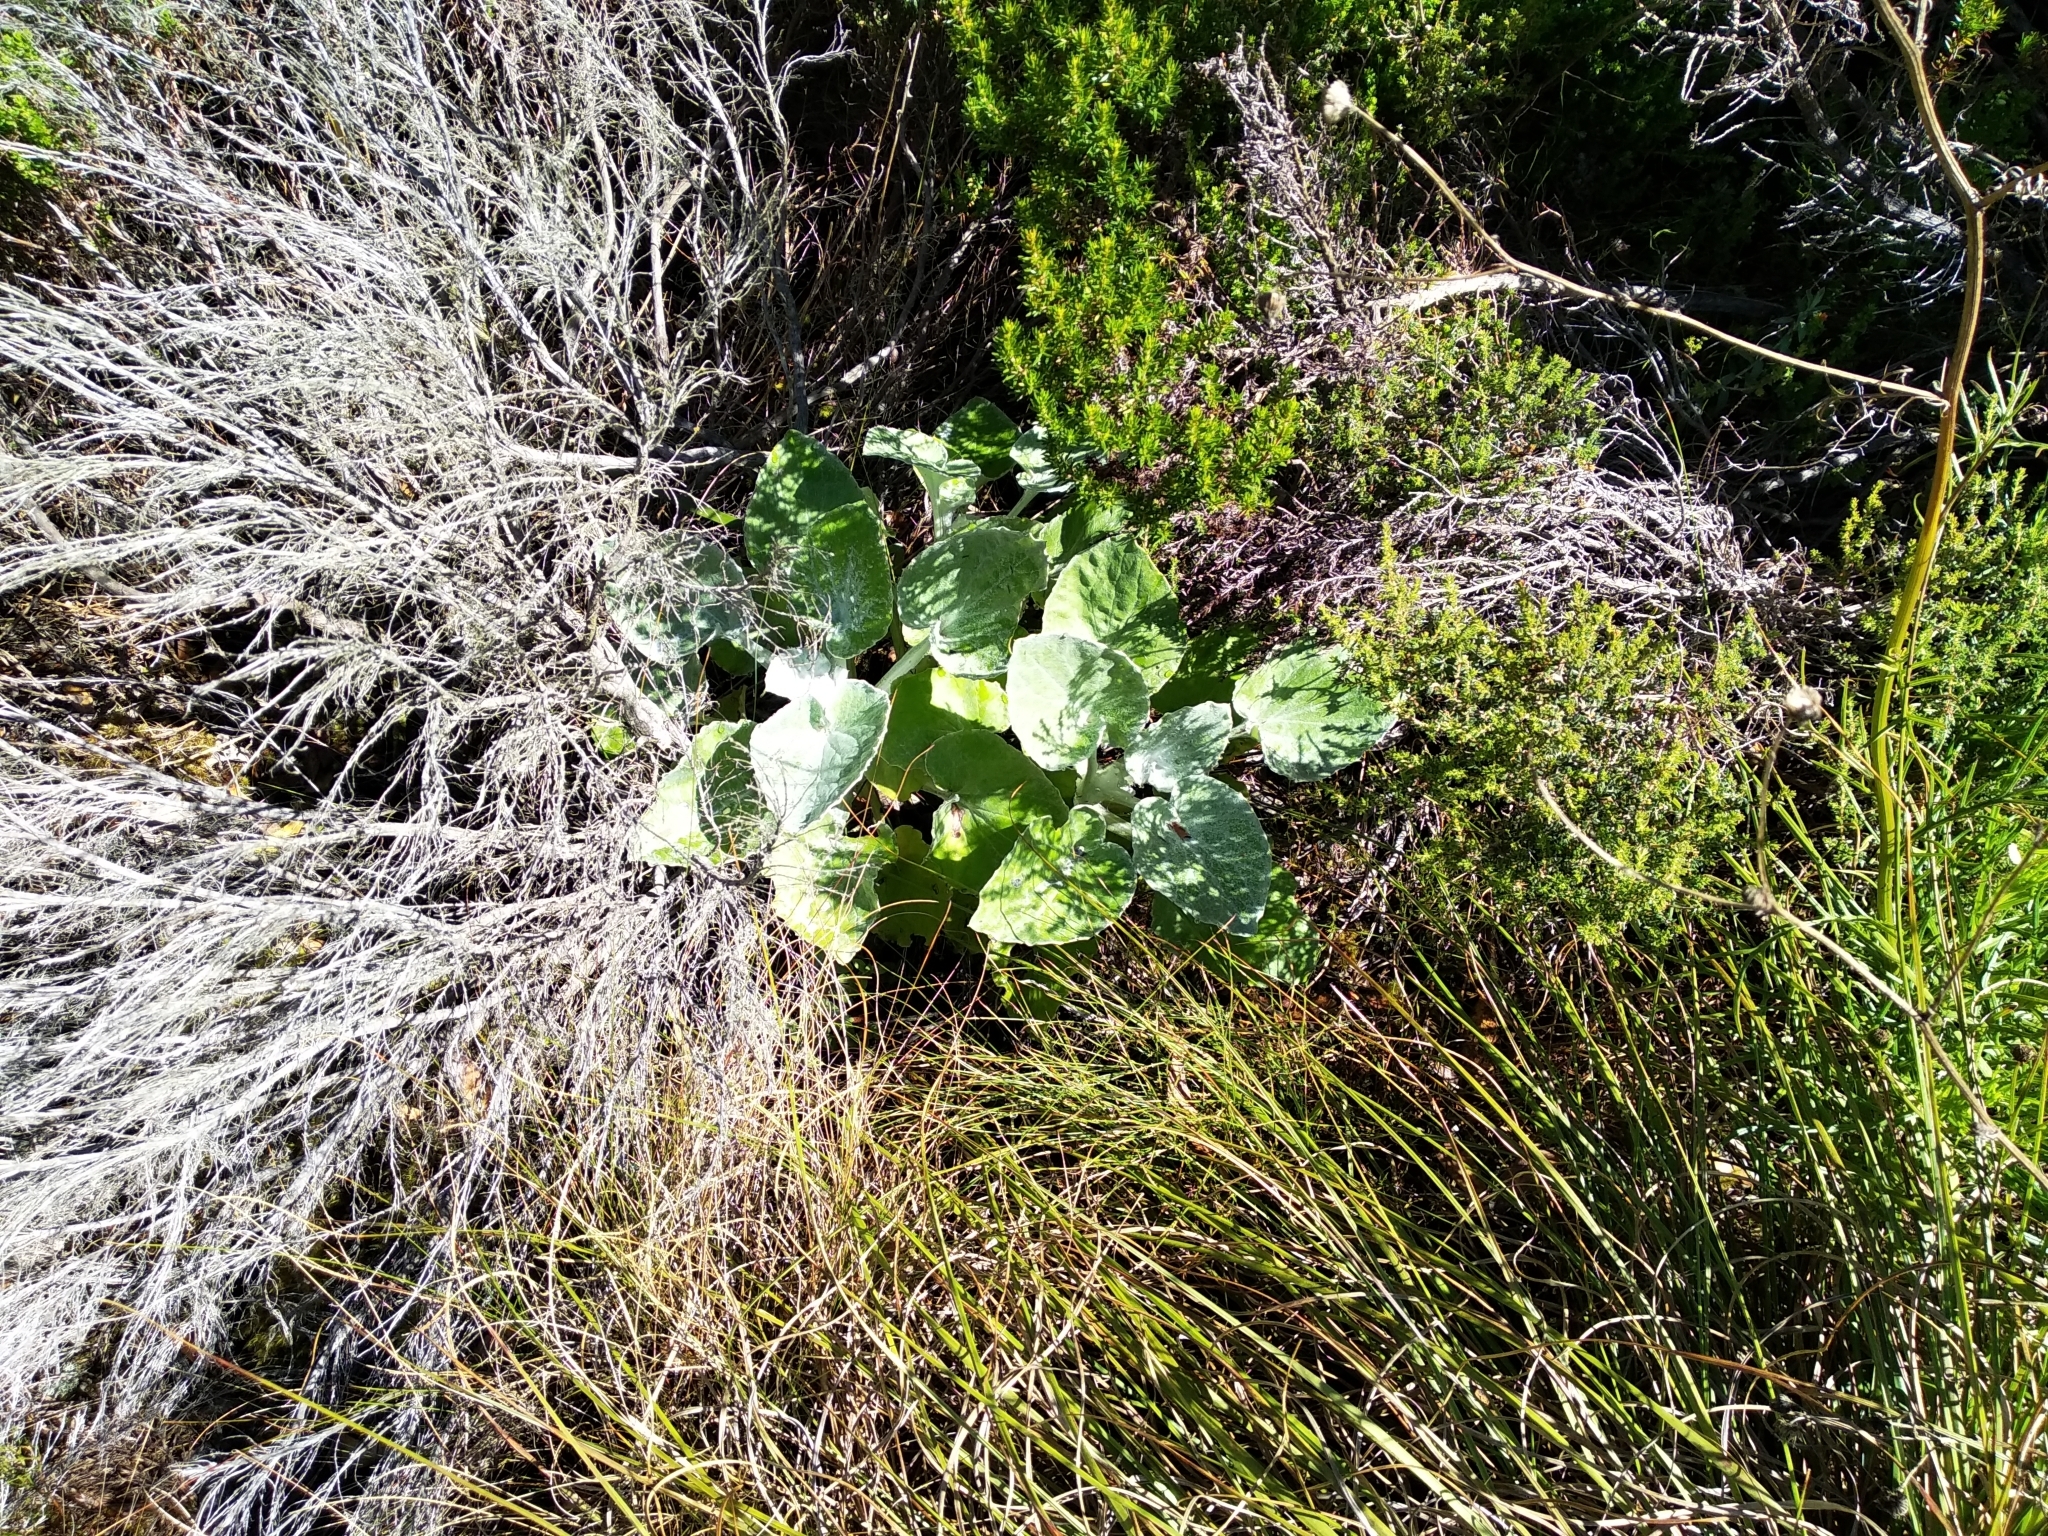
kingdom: Plantae
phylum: Tracheophyta
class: Magnoliopsida
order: Asterales
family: Asteraceae
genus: Senecio
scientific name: Senecio verbascifolius
